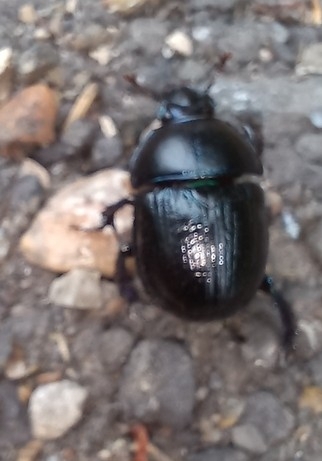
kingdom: Animalia
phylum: Arthropoda
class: Insecta
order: Coleoptera
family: Geotrupidae
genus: Anoplotrupes
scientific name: Anoplotrupes stercorosus
